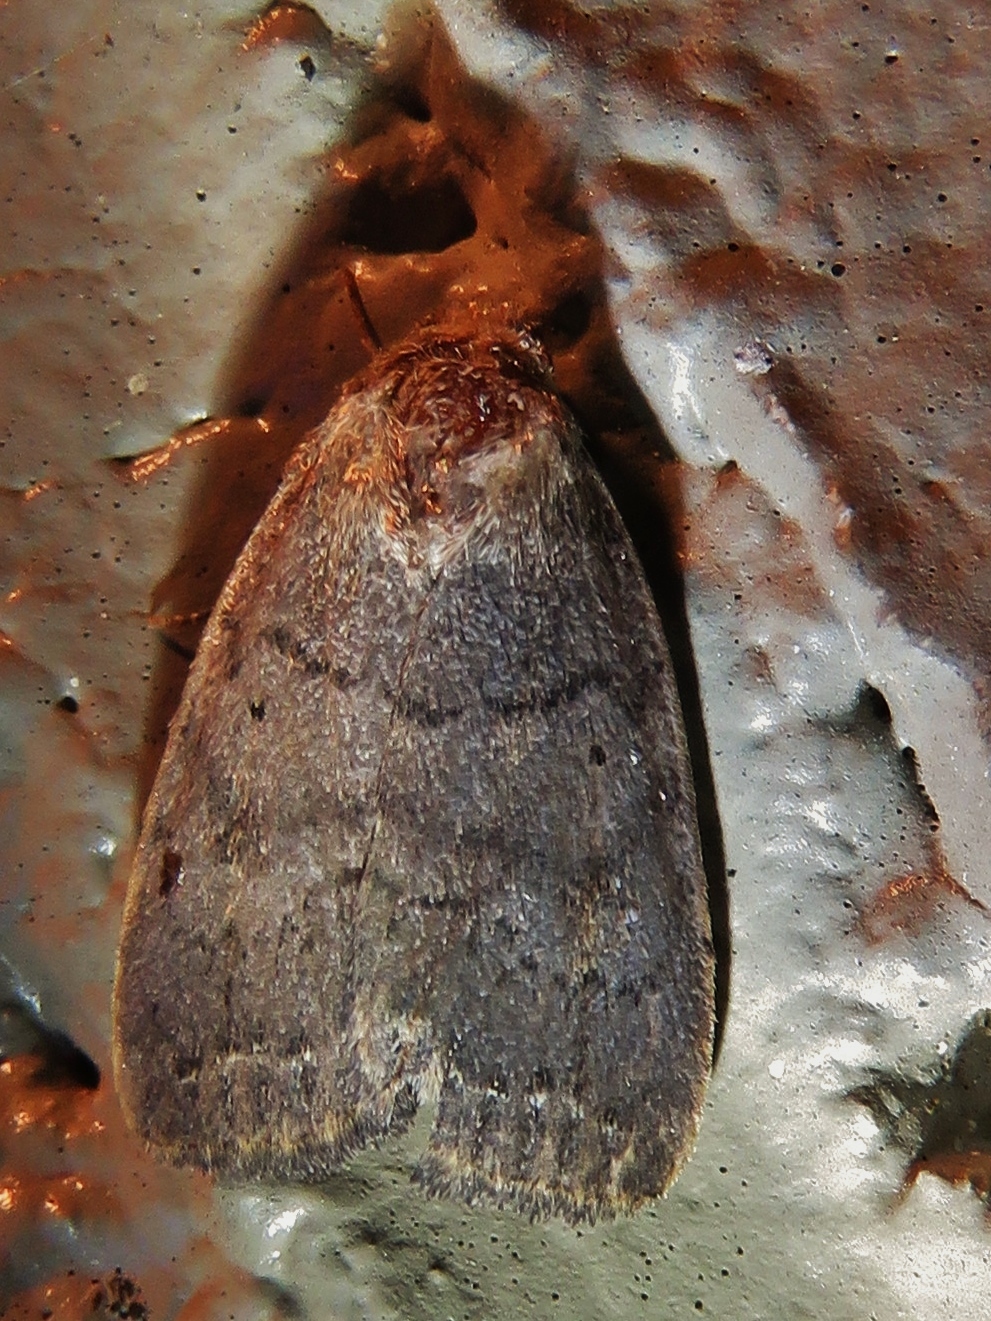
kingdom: Animalia
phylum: Arthropoda
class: Insecta
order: Lepidoptera
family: Noctuidae
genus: Athetis
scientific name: Athetis tarda
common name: Slowpoke moth
